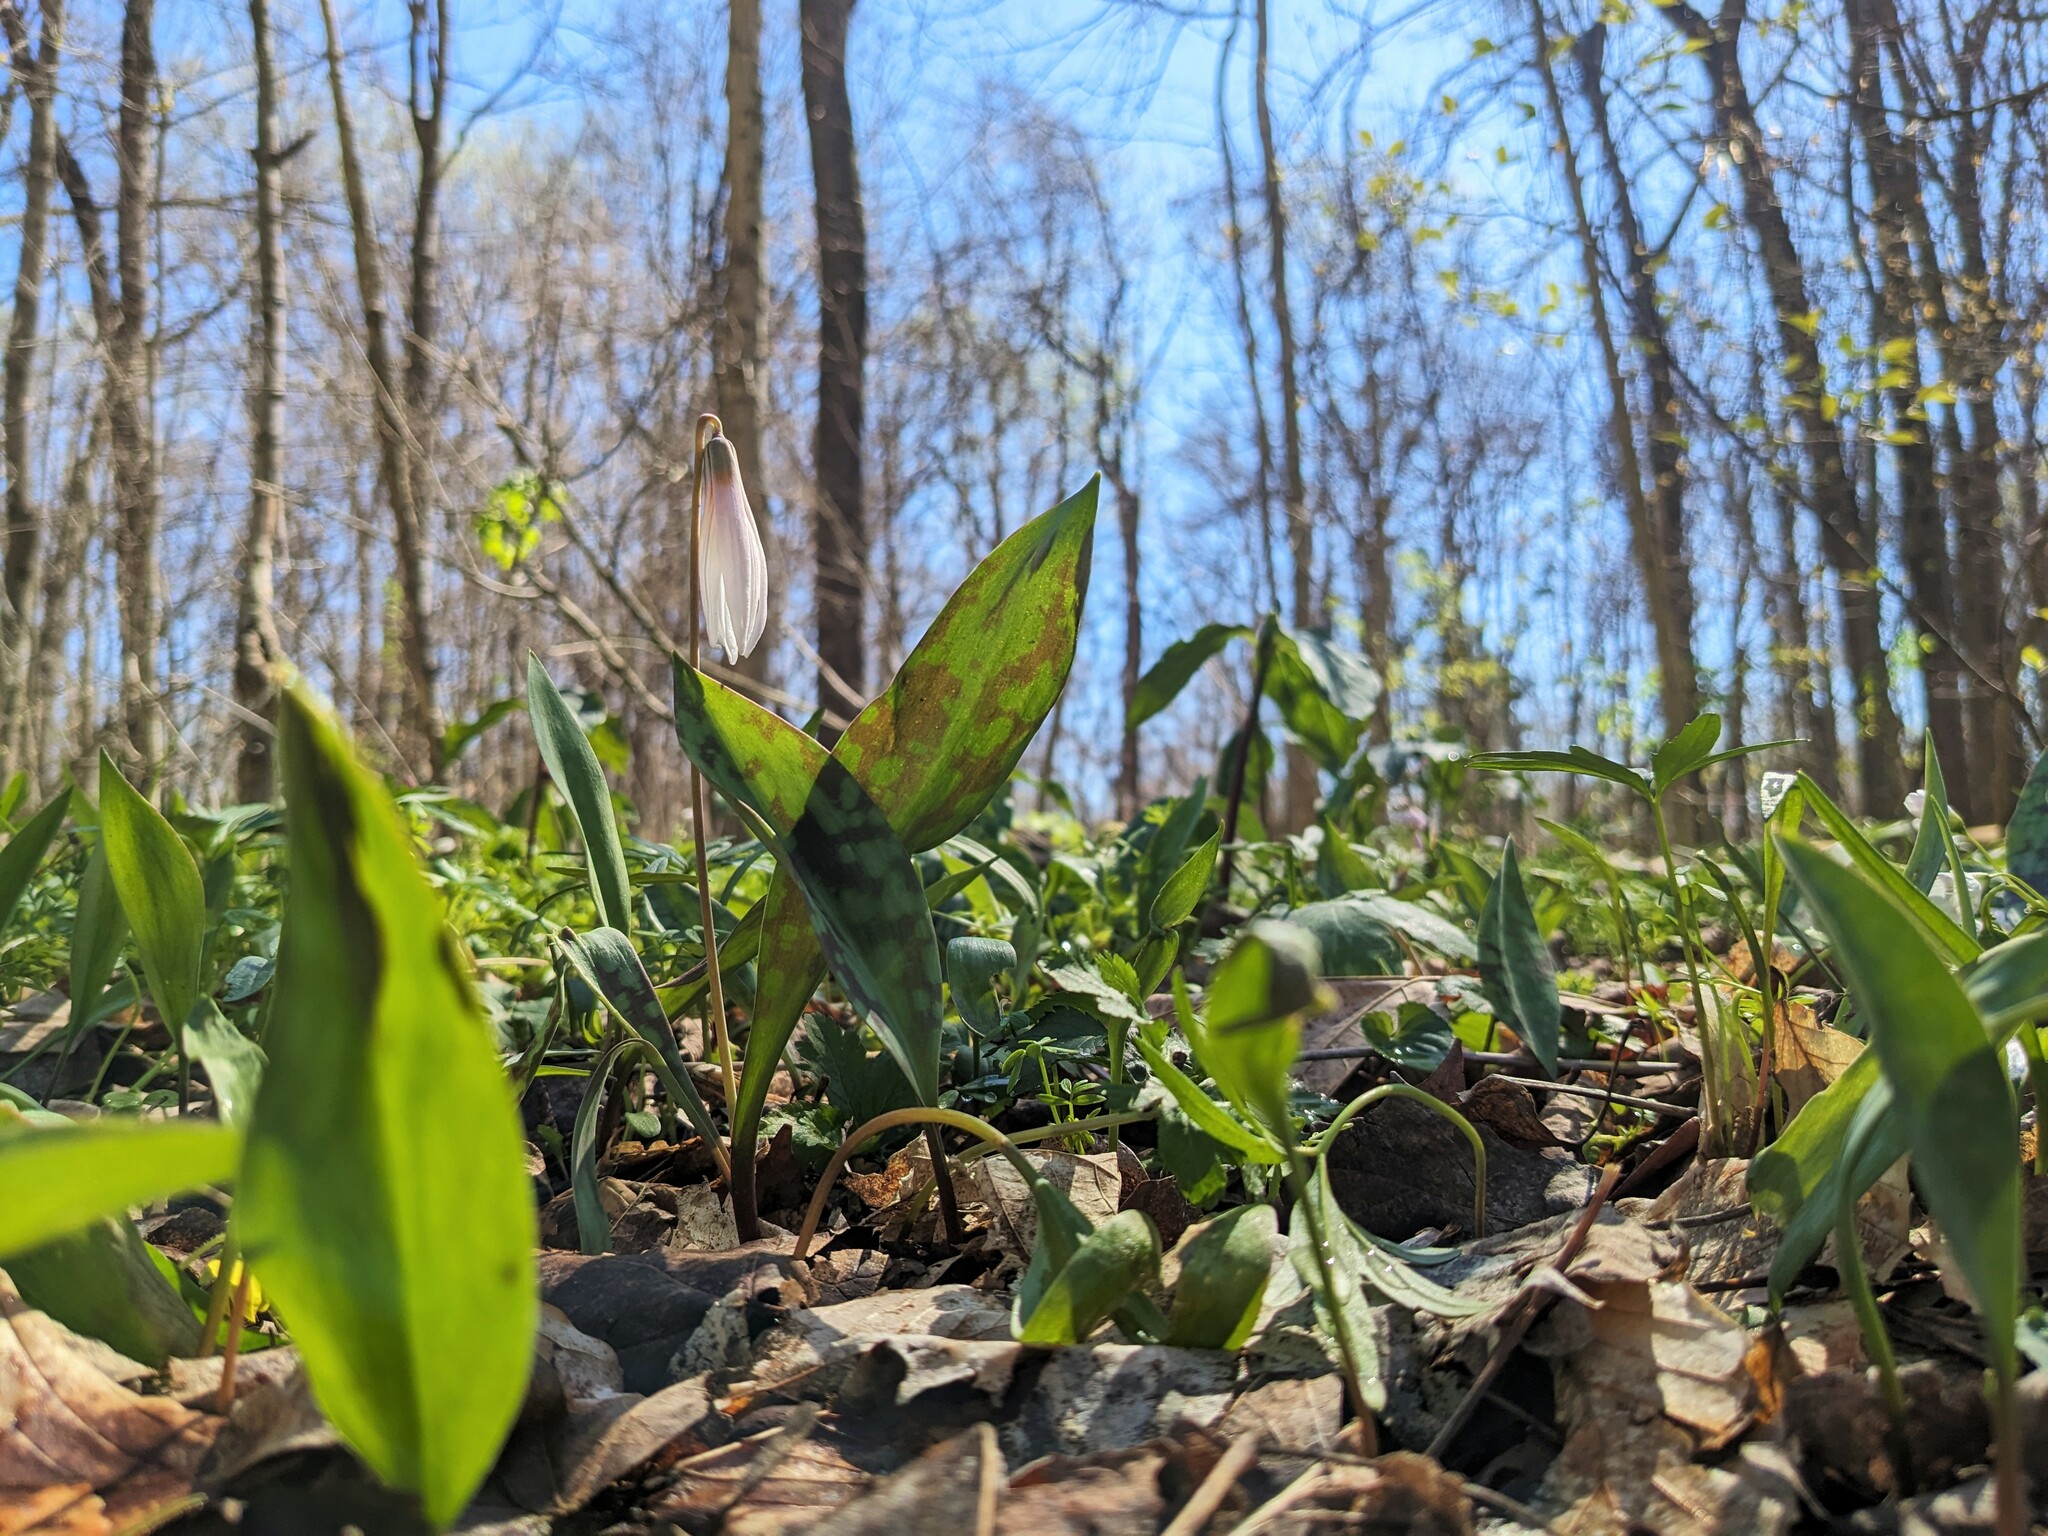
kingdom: Plantae
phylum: Tracheophyta
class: Liliopsida
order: Liliales
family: Liliaceae
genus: Erythronium
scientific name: Erythronium albidum
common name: White trout-lily
